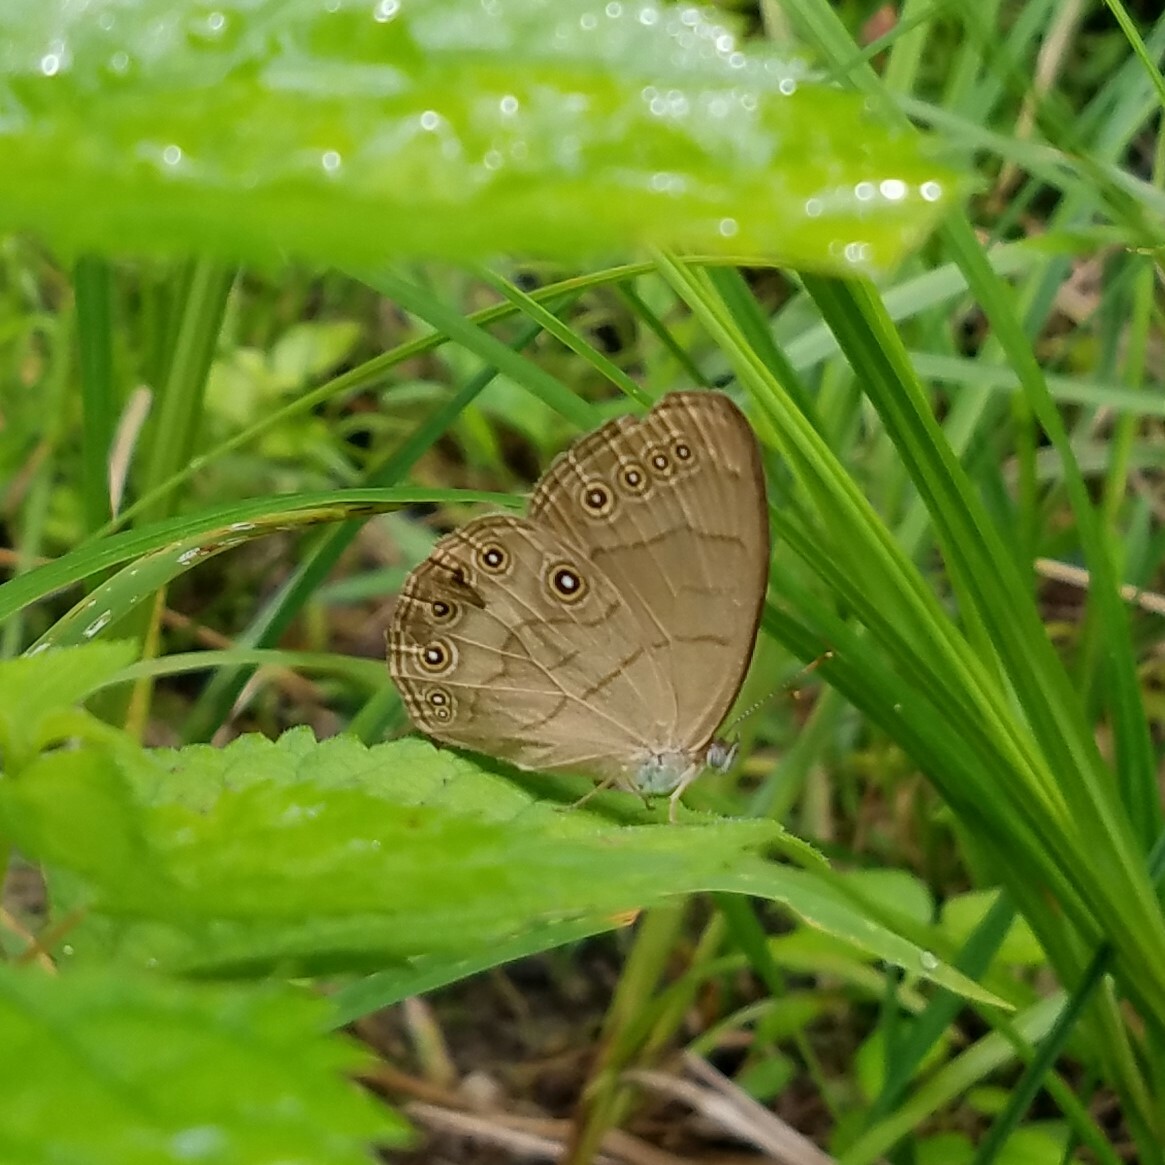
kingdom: Animalia
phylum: Arthropoda
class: Insecta
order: Lepidoptera
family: Nymphalidae
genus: Lethe
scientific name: Lethe eurydice
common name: Eyed brown
